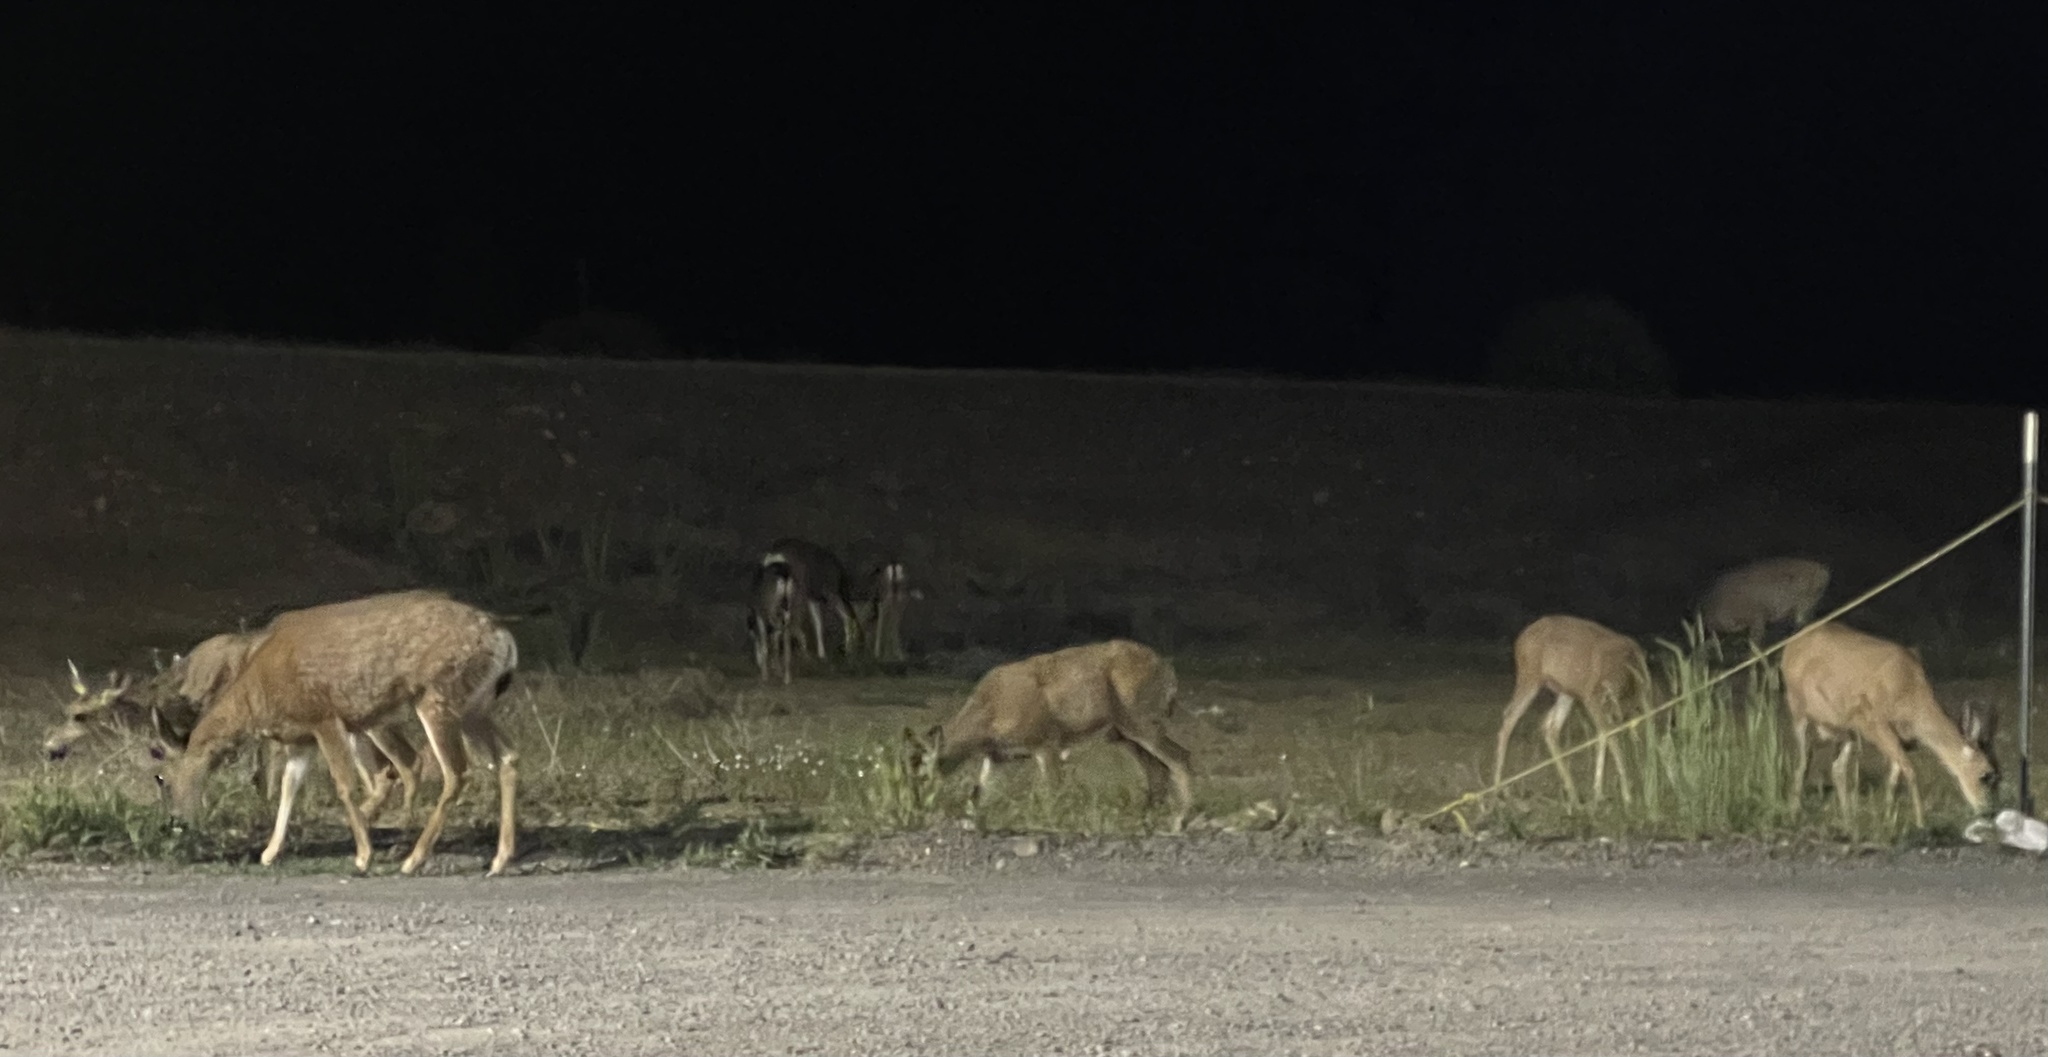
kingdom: Animalia
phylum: Chordata
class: Mammalia
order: Artiodactyla
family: Cervidae
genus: Odocoileus
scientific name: Odocoileus hemionus
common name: Mule deer
